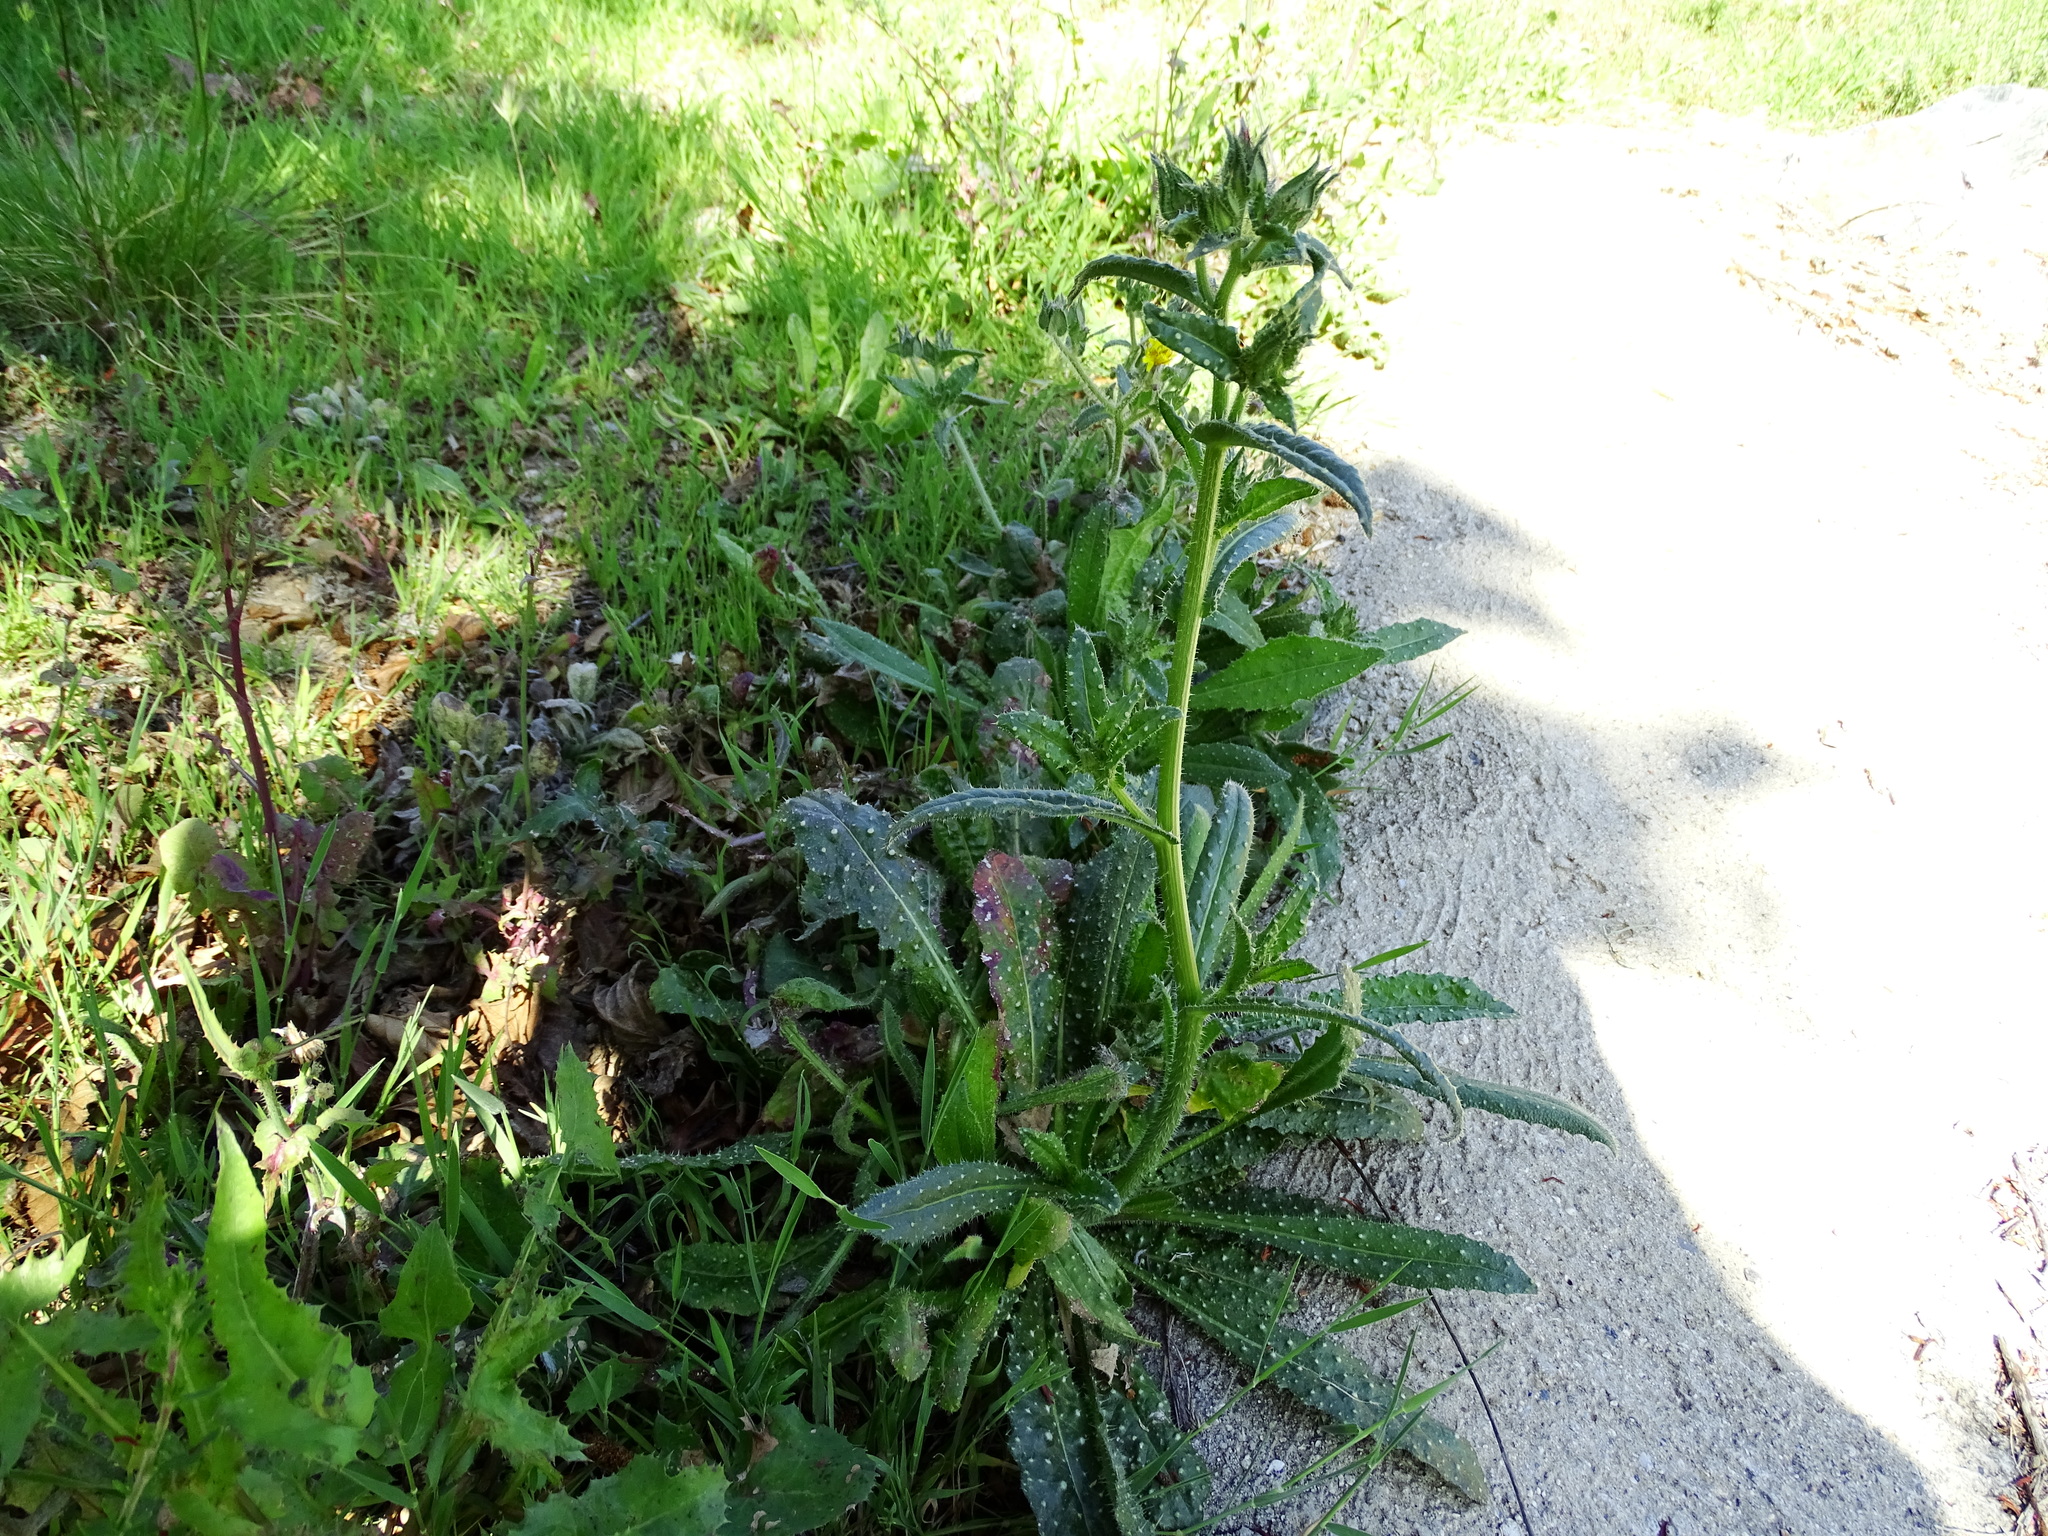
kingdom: Plantae
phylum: Tracheophyta
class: Magnoliopsida
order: Asterales
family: Asteraceae
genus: Helminthotheca
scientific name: Helminthotheca echioides
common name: Ox-tongue
